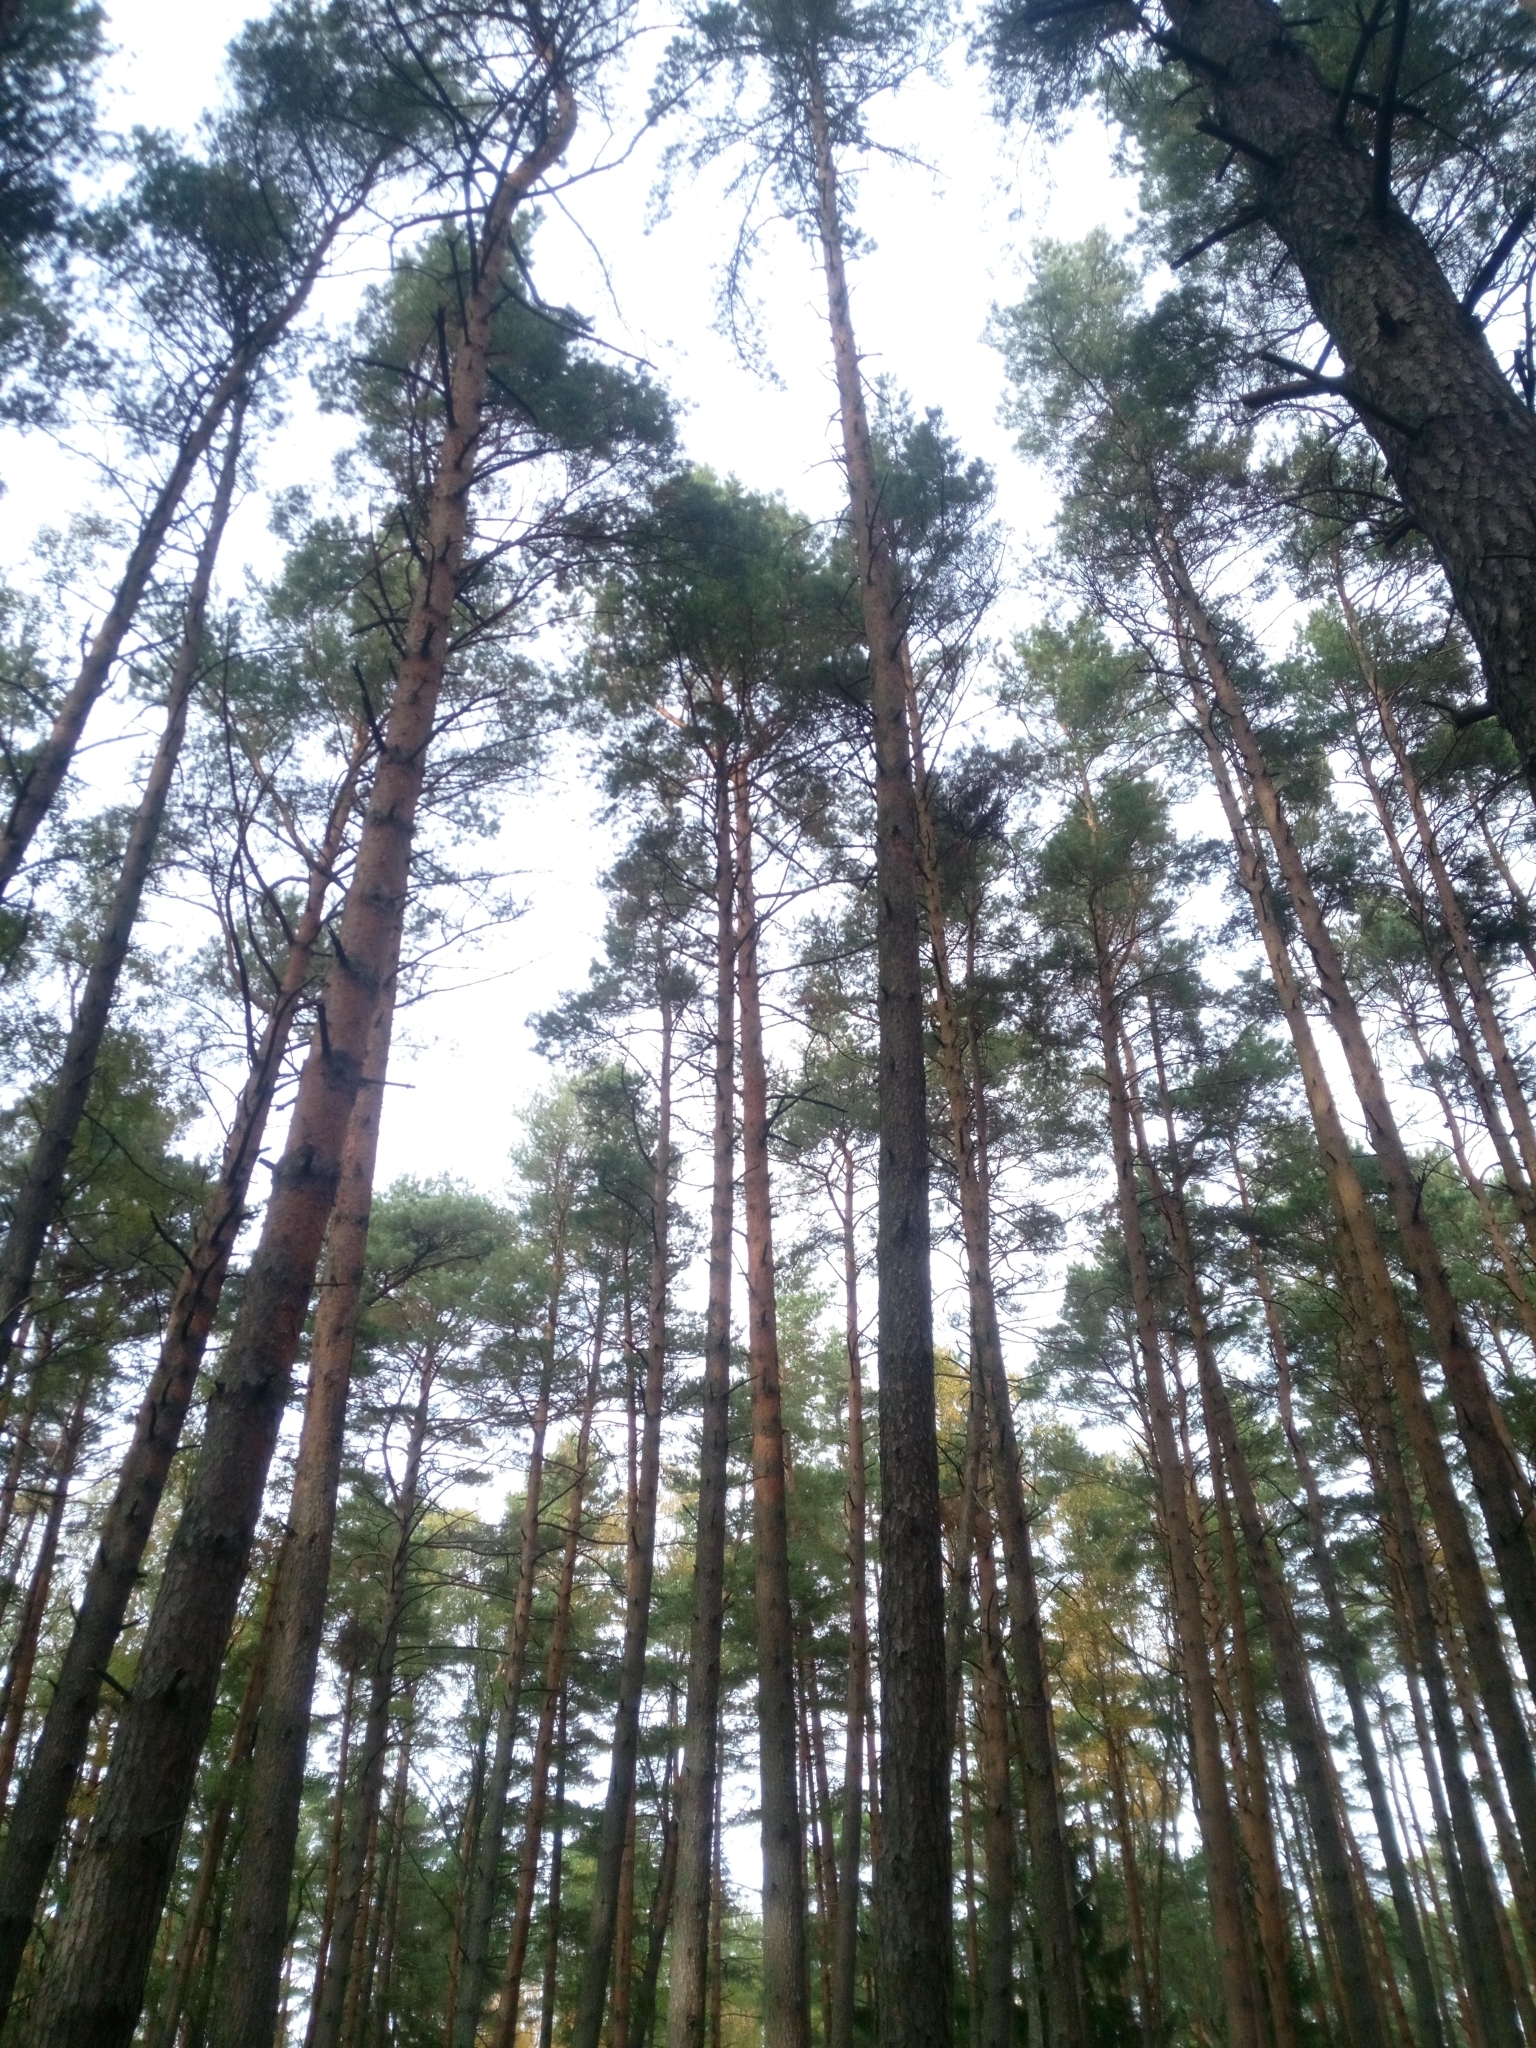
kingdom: Plantae
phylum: Tracheophyta
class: Pinopsida
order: Pinales
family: Pinaceae
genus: Pinus
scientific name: Pinus sylvestris
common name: Scots pine
